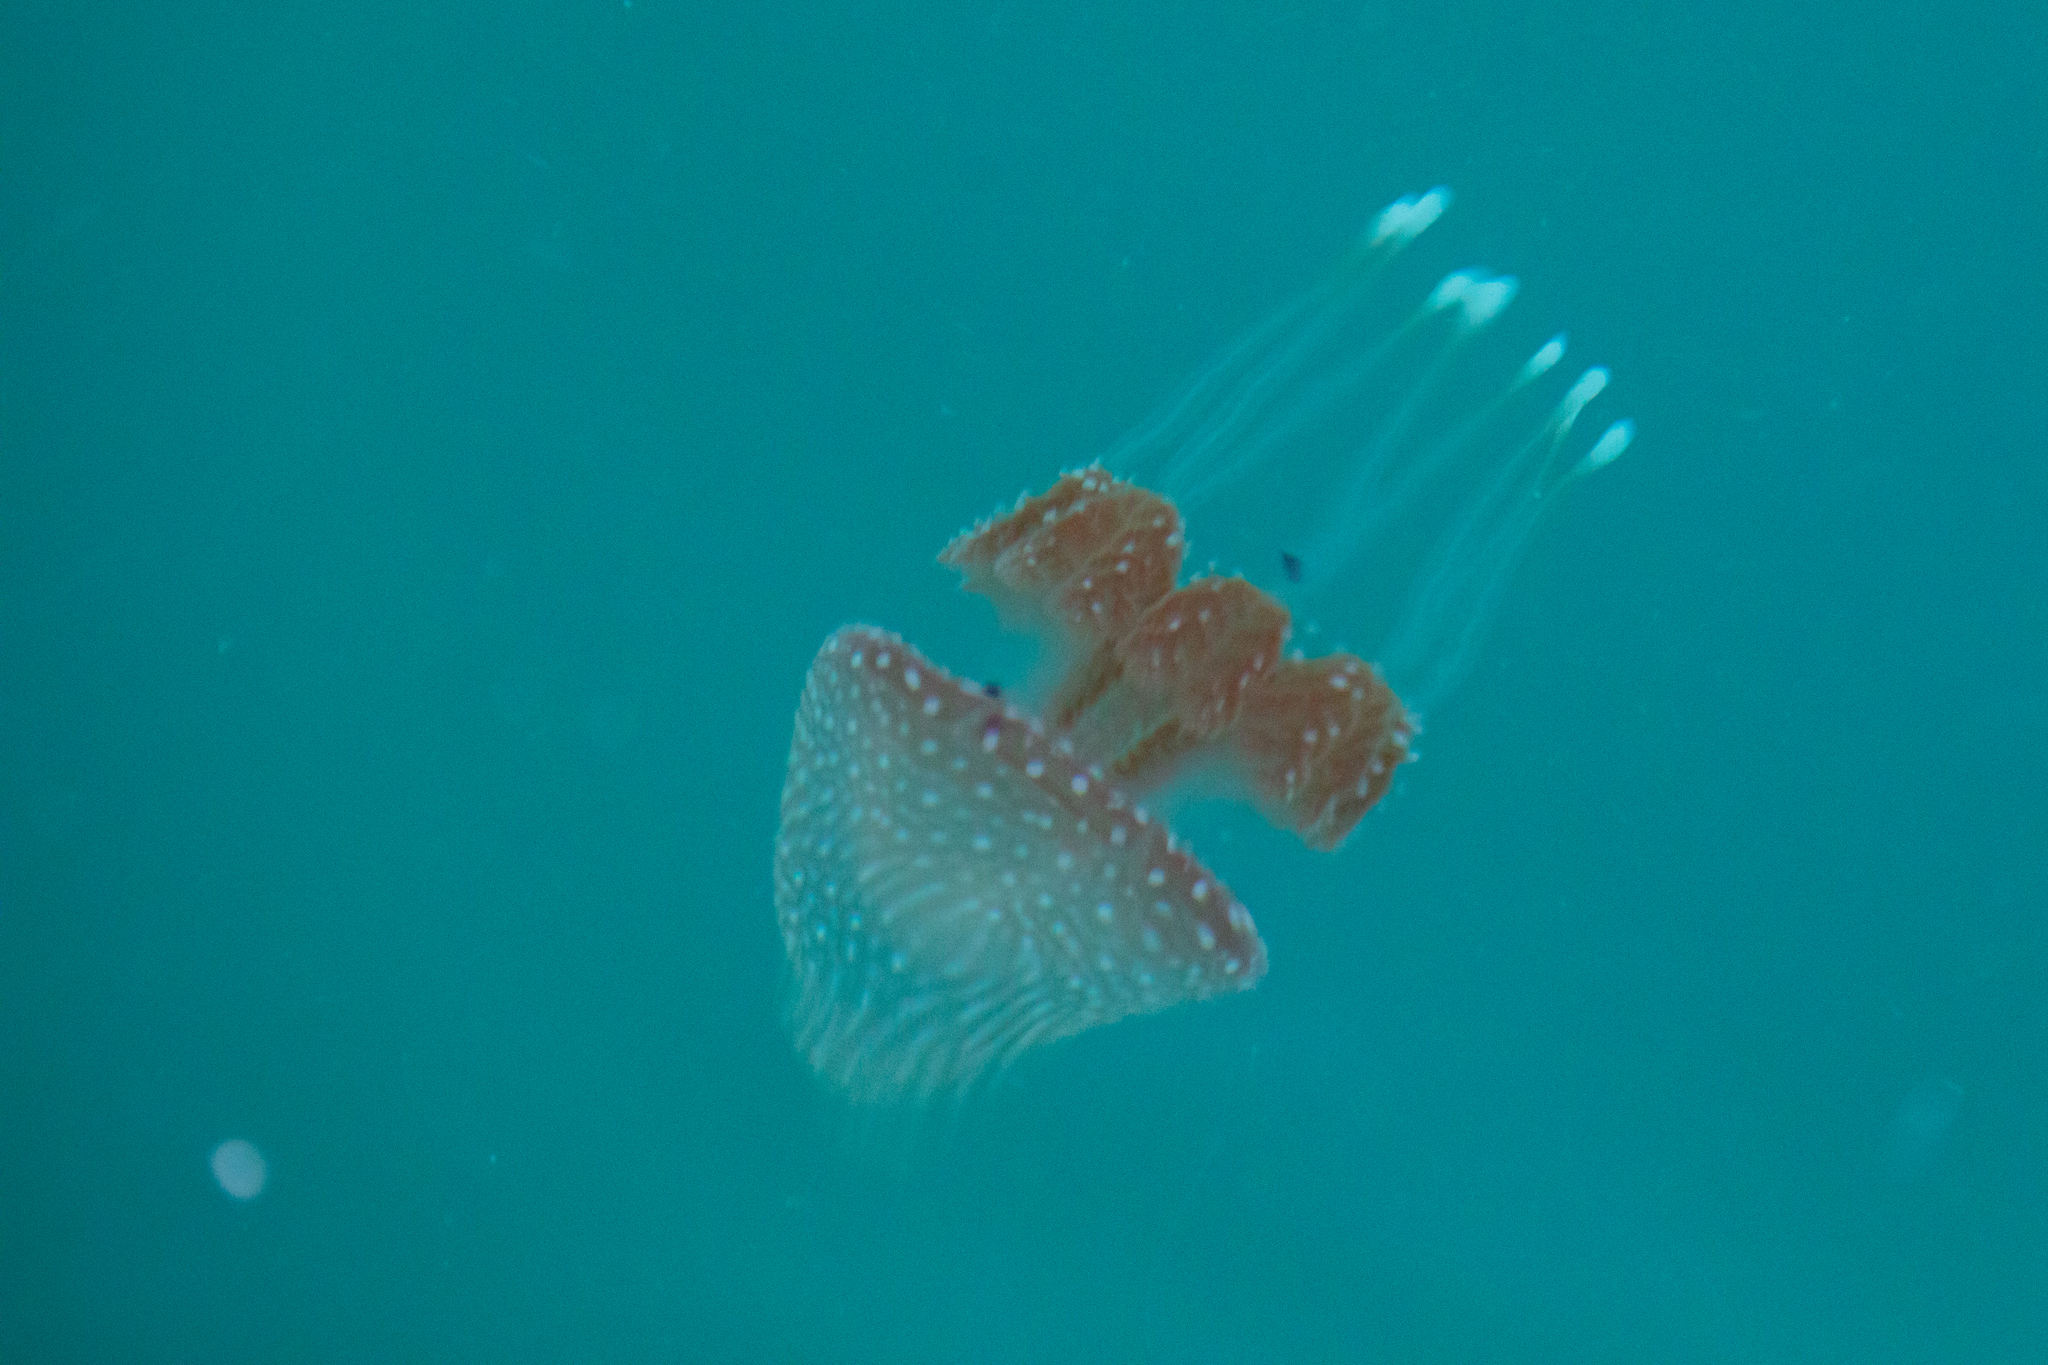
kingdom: Animalia
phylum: Cnidaria
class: Scyphozoa
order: Rhizostomeae
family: Mastigiidae
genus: Phyllorhiza
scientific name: Phyllorhiza punctata
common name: Australian spotted jellyfish
